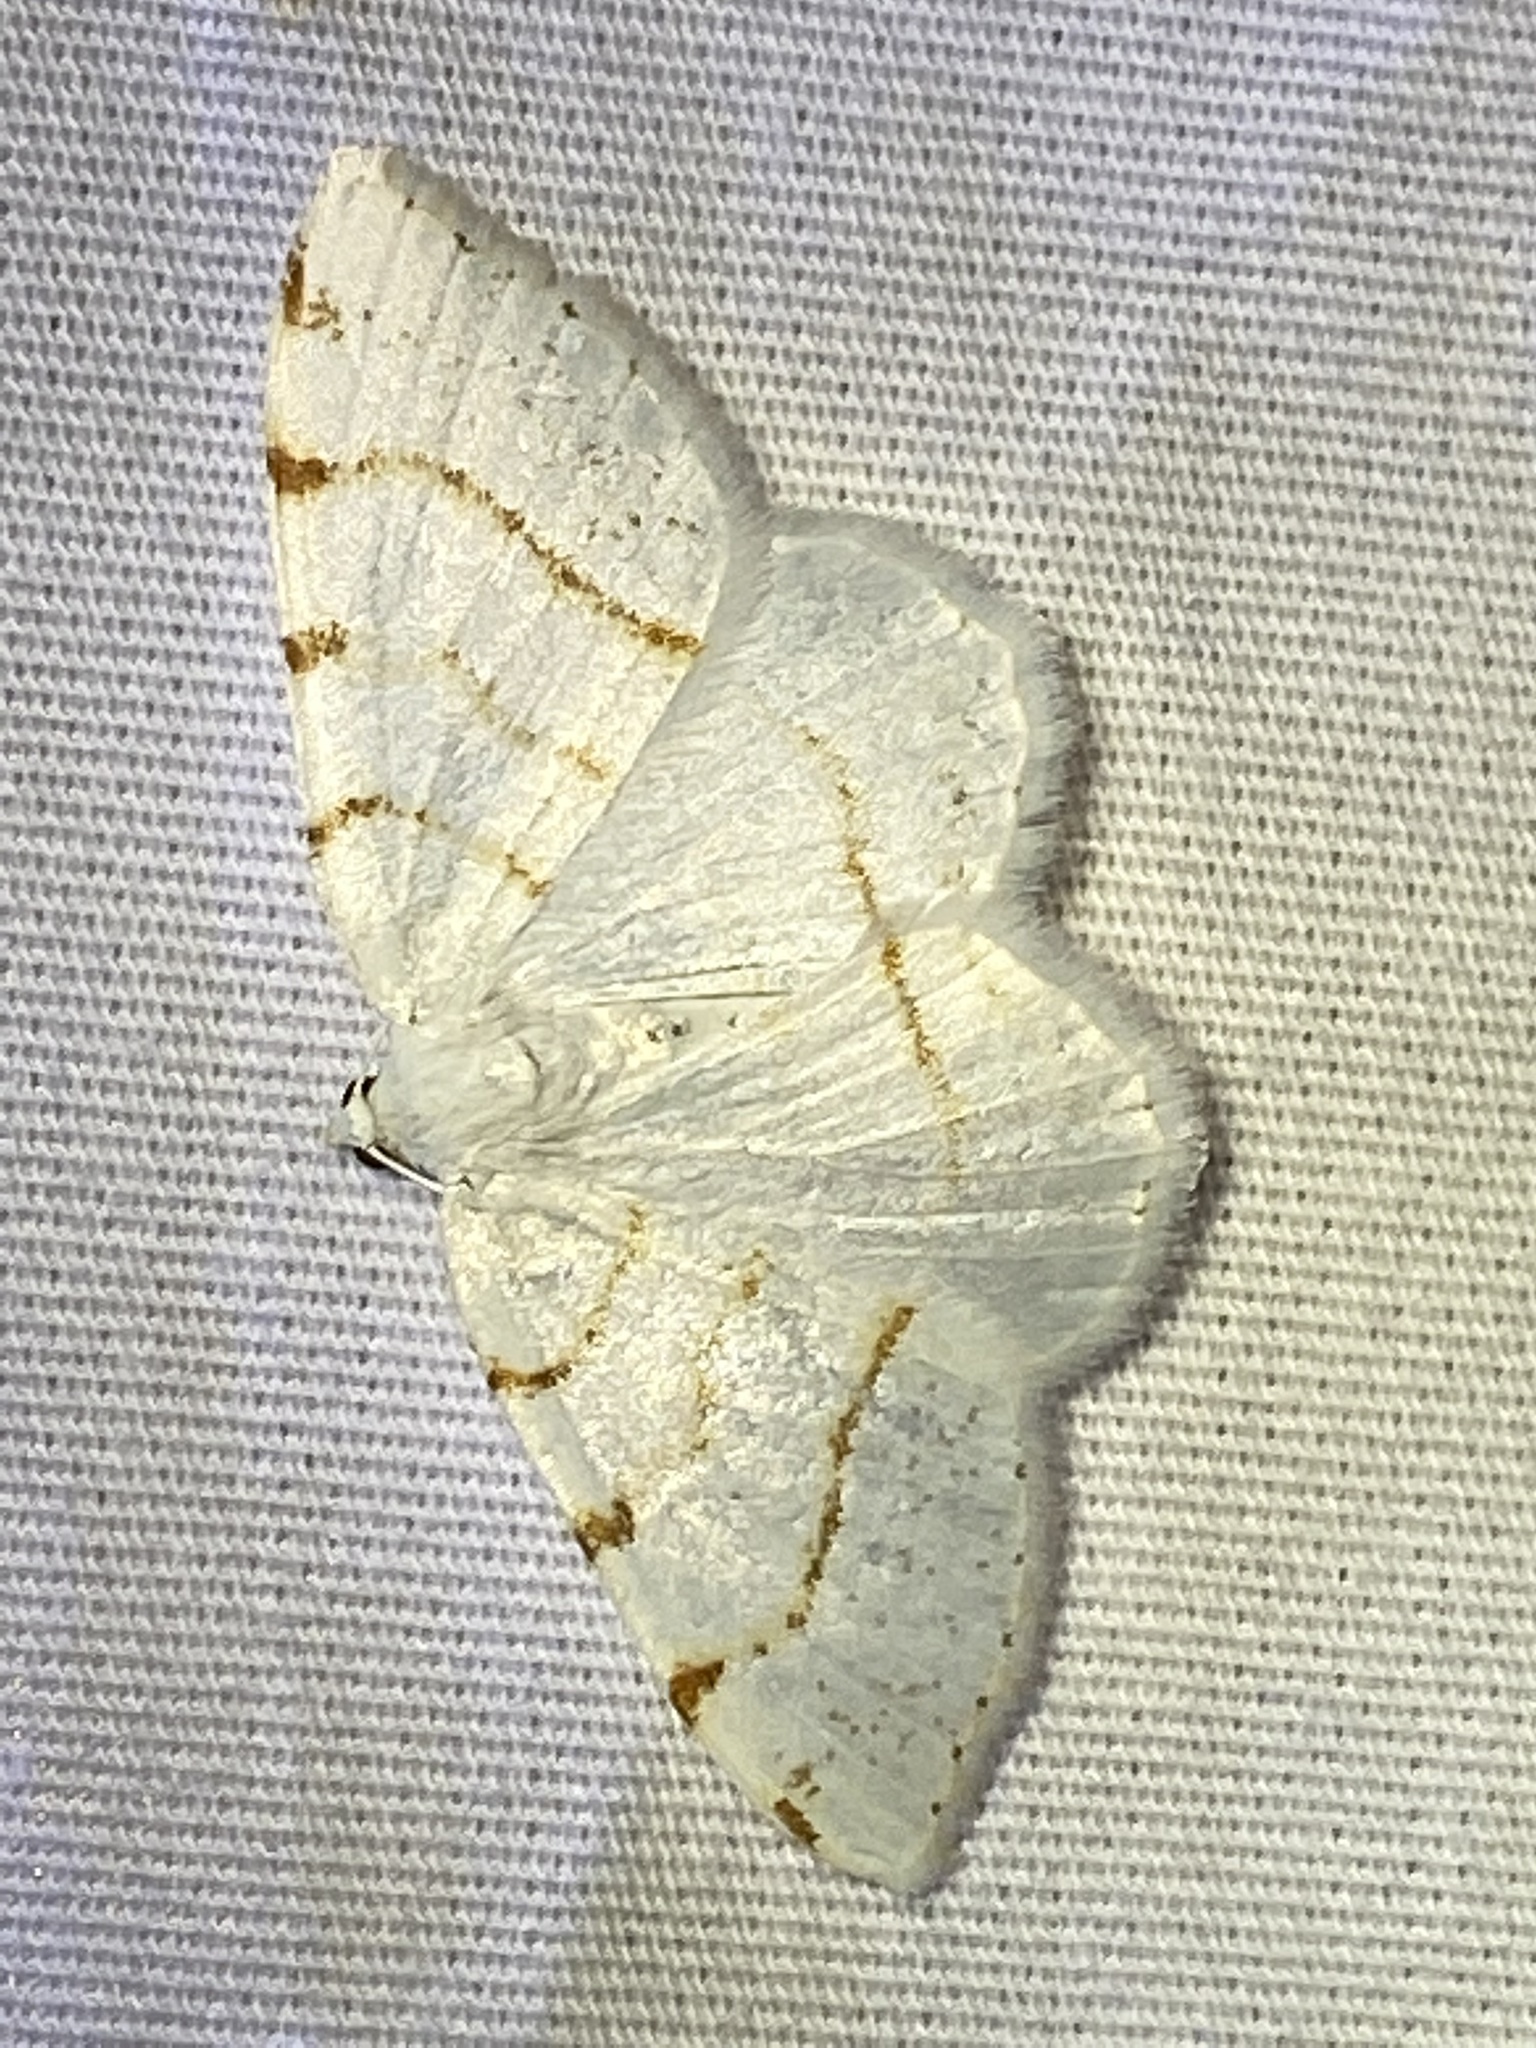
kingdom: Animalia
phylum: Arthropoda
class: Insecta
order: Lepidoptera
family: Geometridae
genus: Macaria
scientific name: Macaria pustularia
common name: Lesser maple spanworm moth
